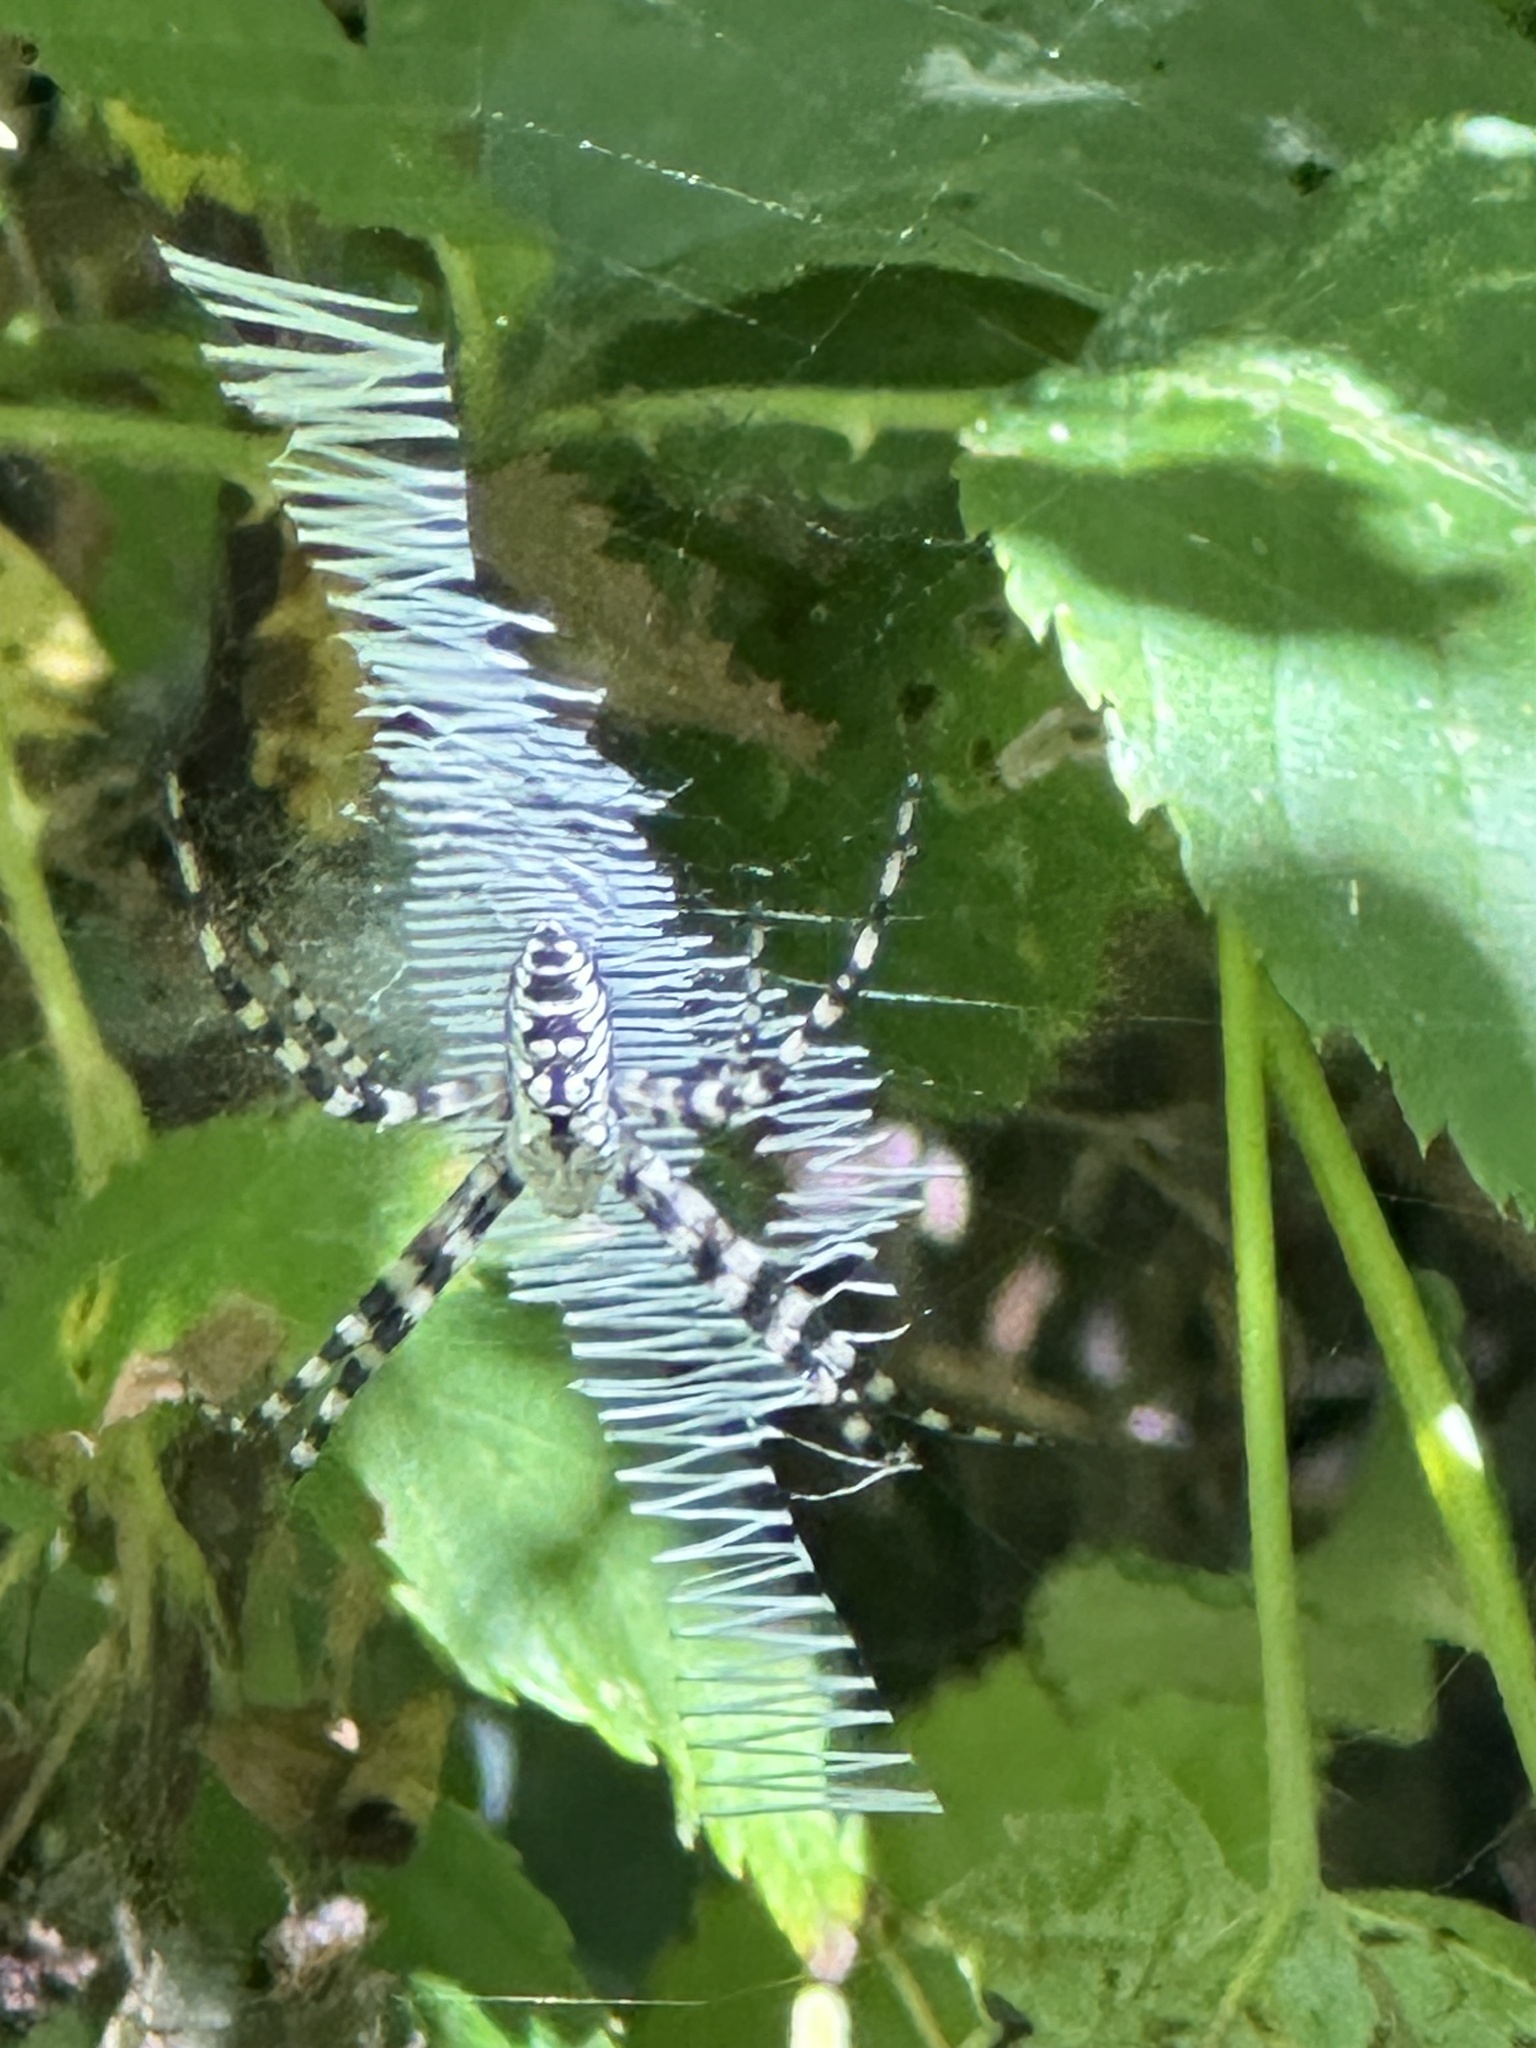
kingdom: Animalia
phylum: Arthropoda
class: Arachnida
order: Araneae
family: Araneidae
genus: Argiope
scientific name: Argiope aurantia
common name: Orb weavers
